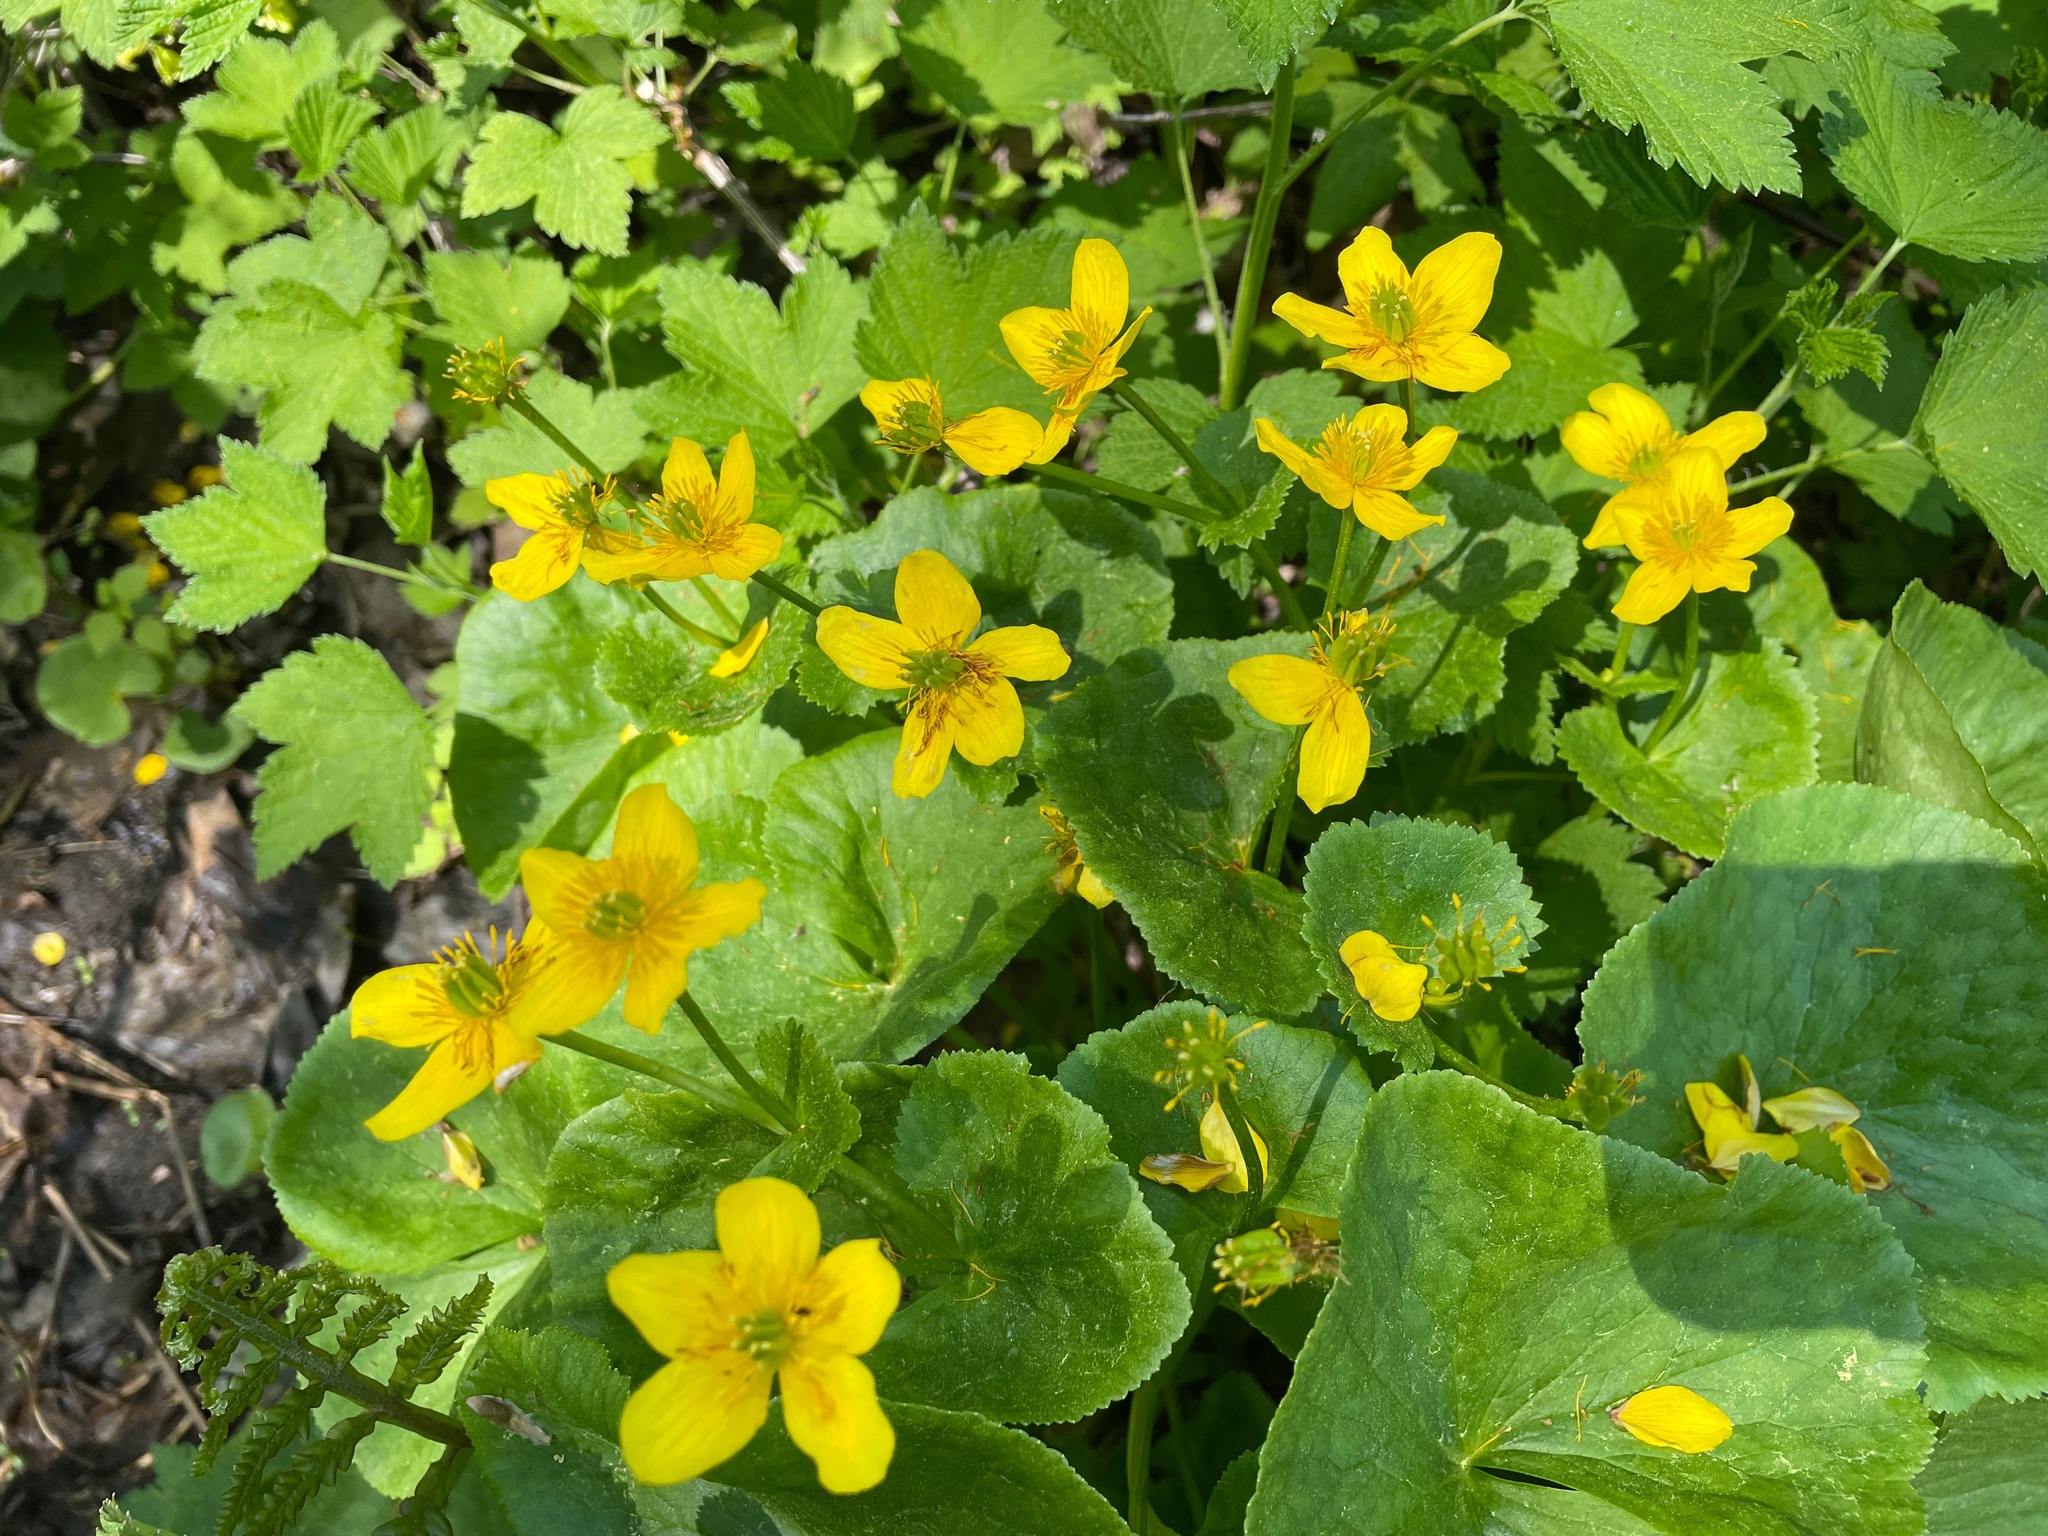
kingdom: Plantae
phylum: Tracheophyta
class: Magnoliopsida
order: Ranunculales
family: Ranunculaceae
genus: Caltha
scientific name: Caltha palustris
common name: Marsh marigold
